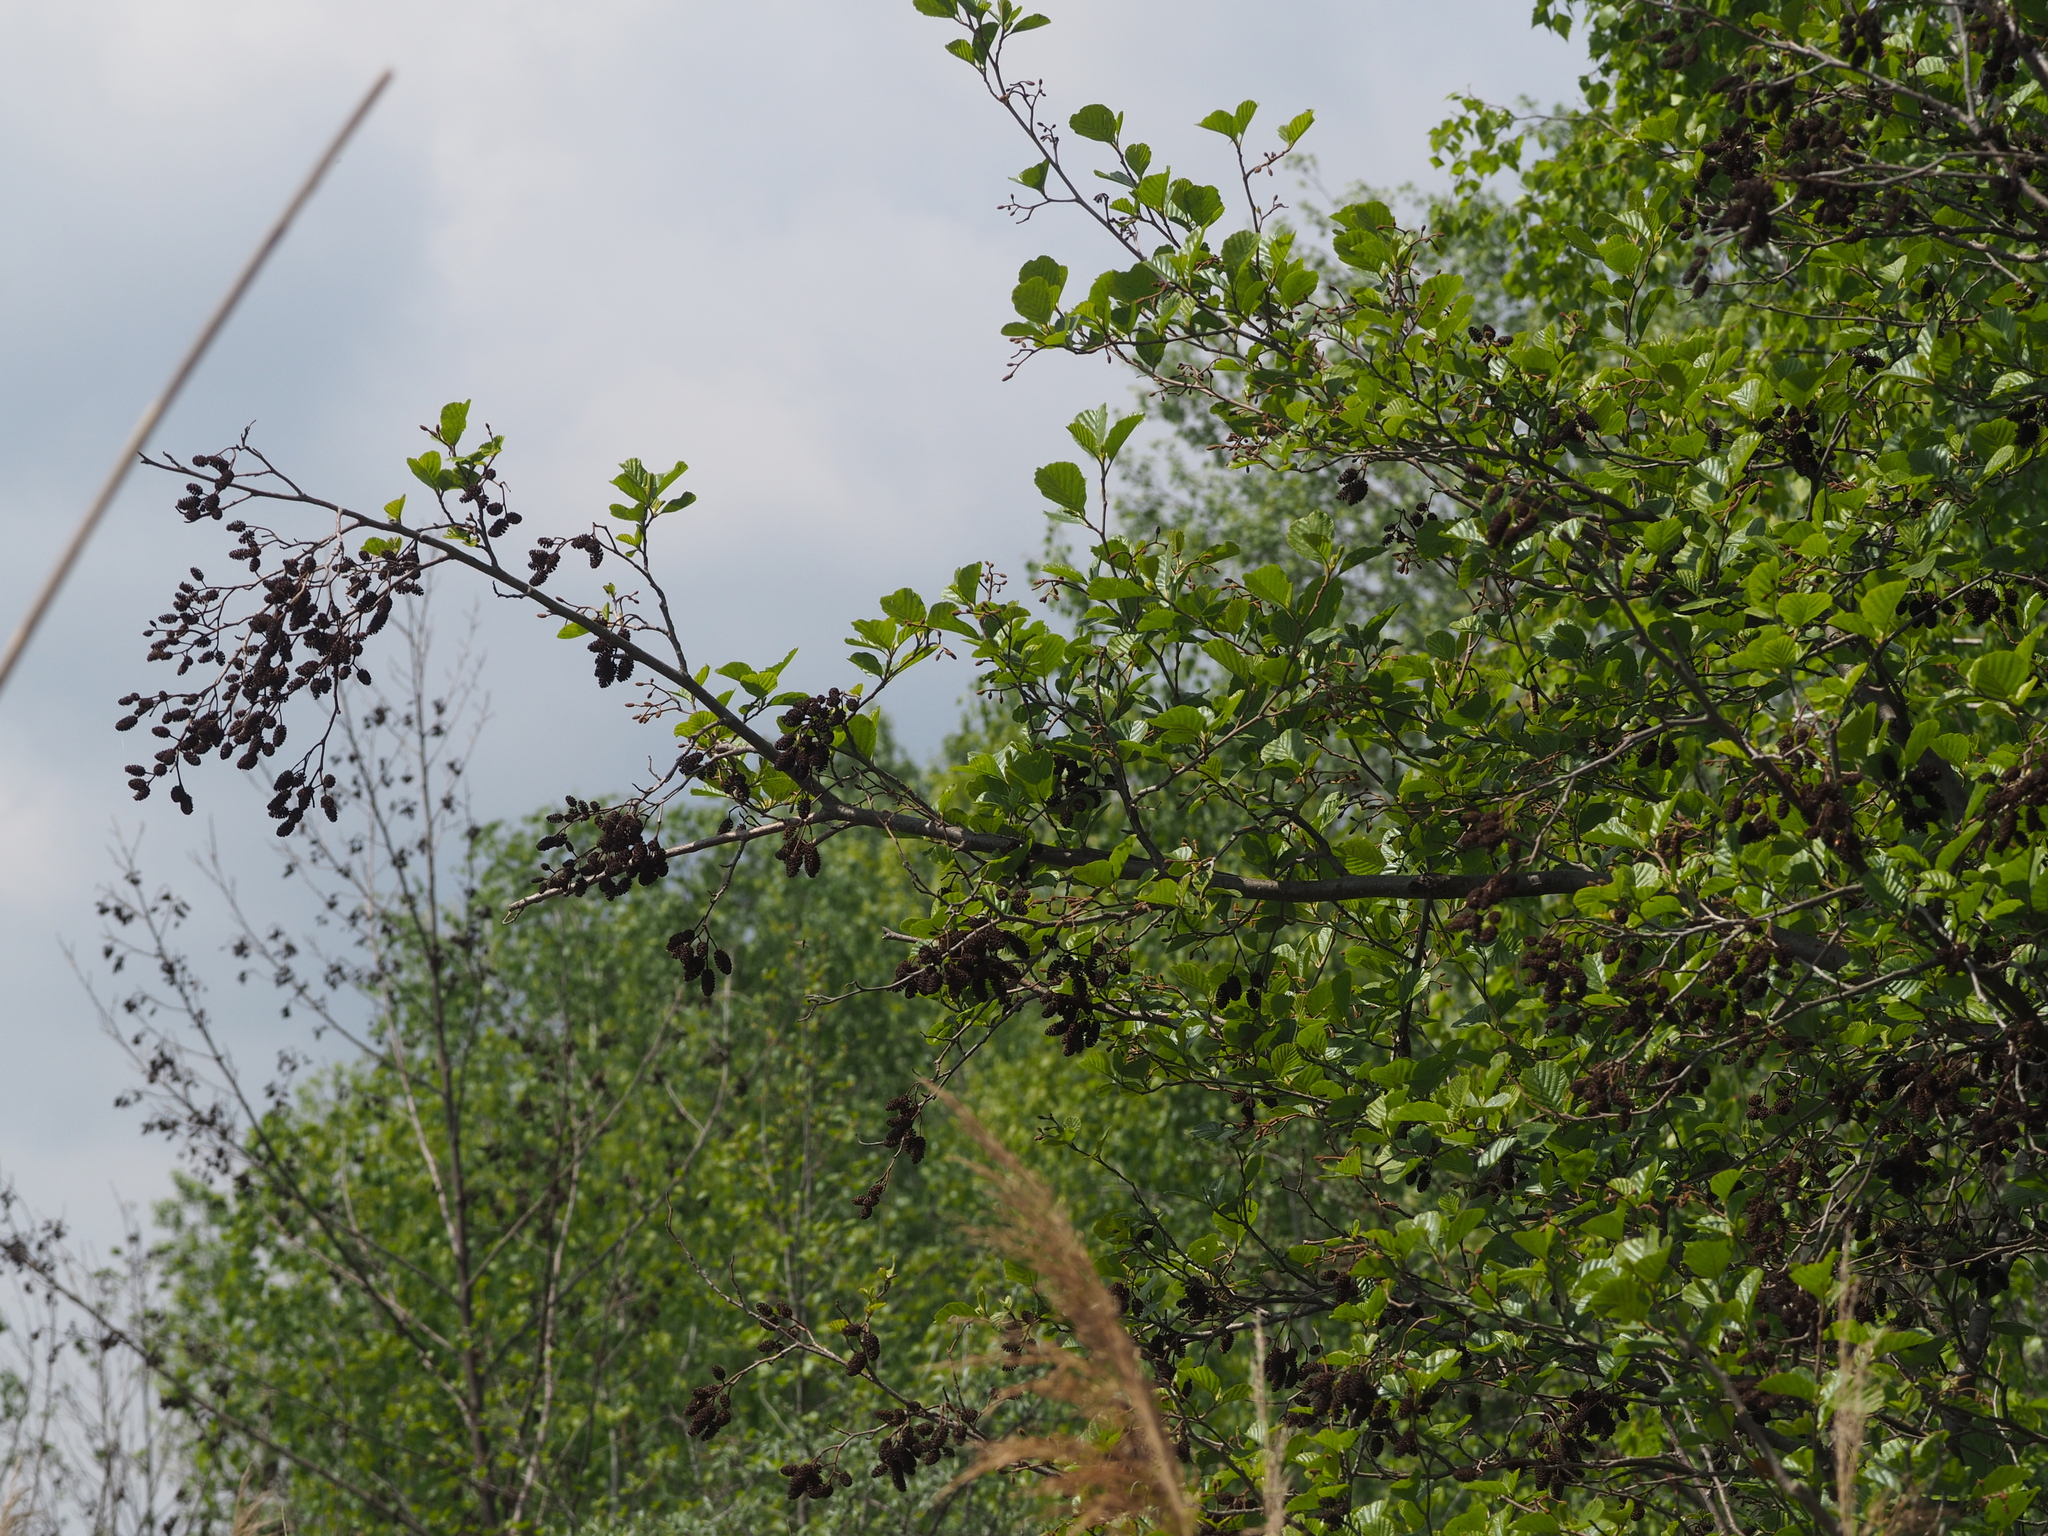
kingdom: Plantae
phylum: Tracheophyta
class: Magnoliopsida
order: Fagales
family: Betulaceae
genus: Alnus
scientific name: Alnus glutinosa
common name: Black alder
